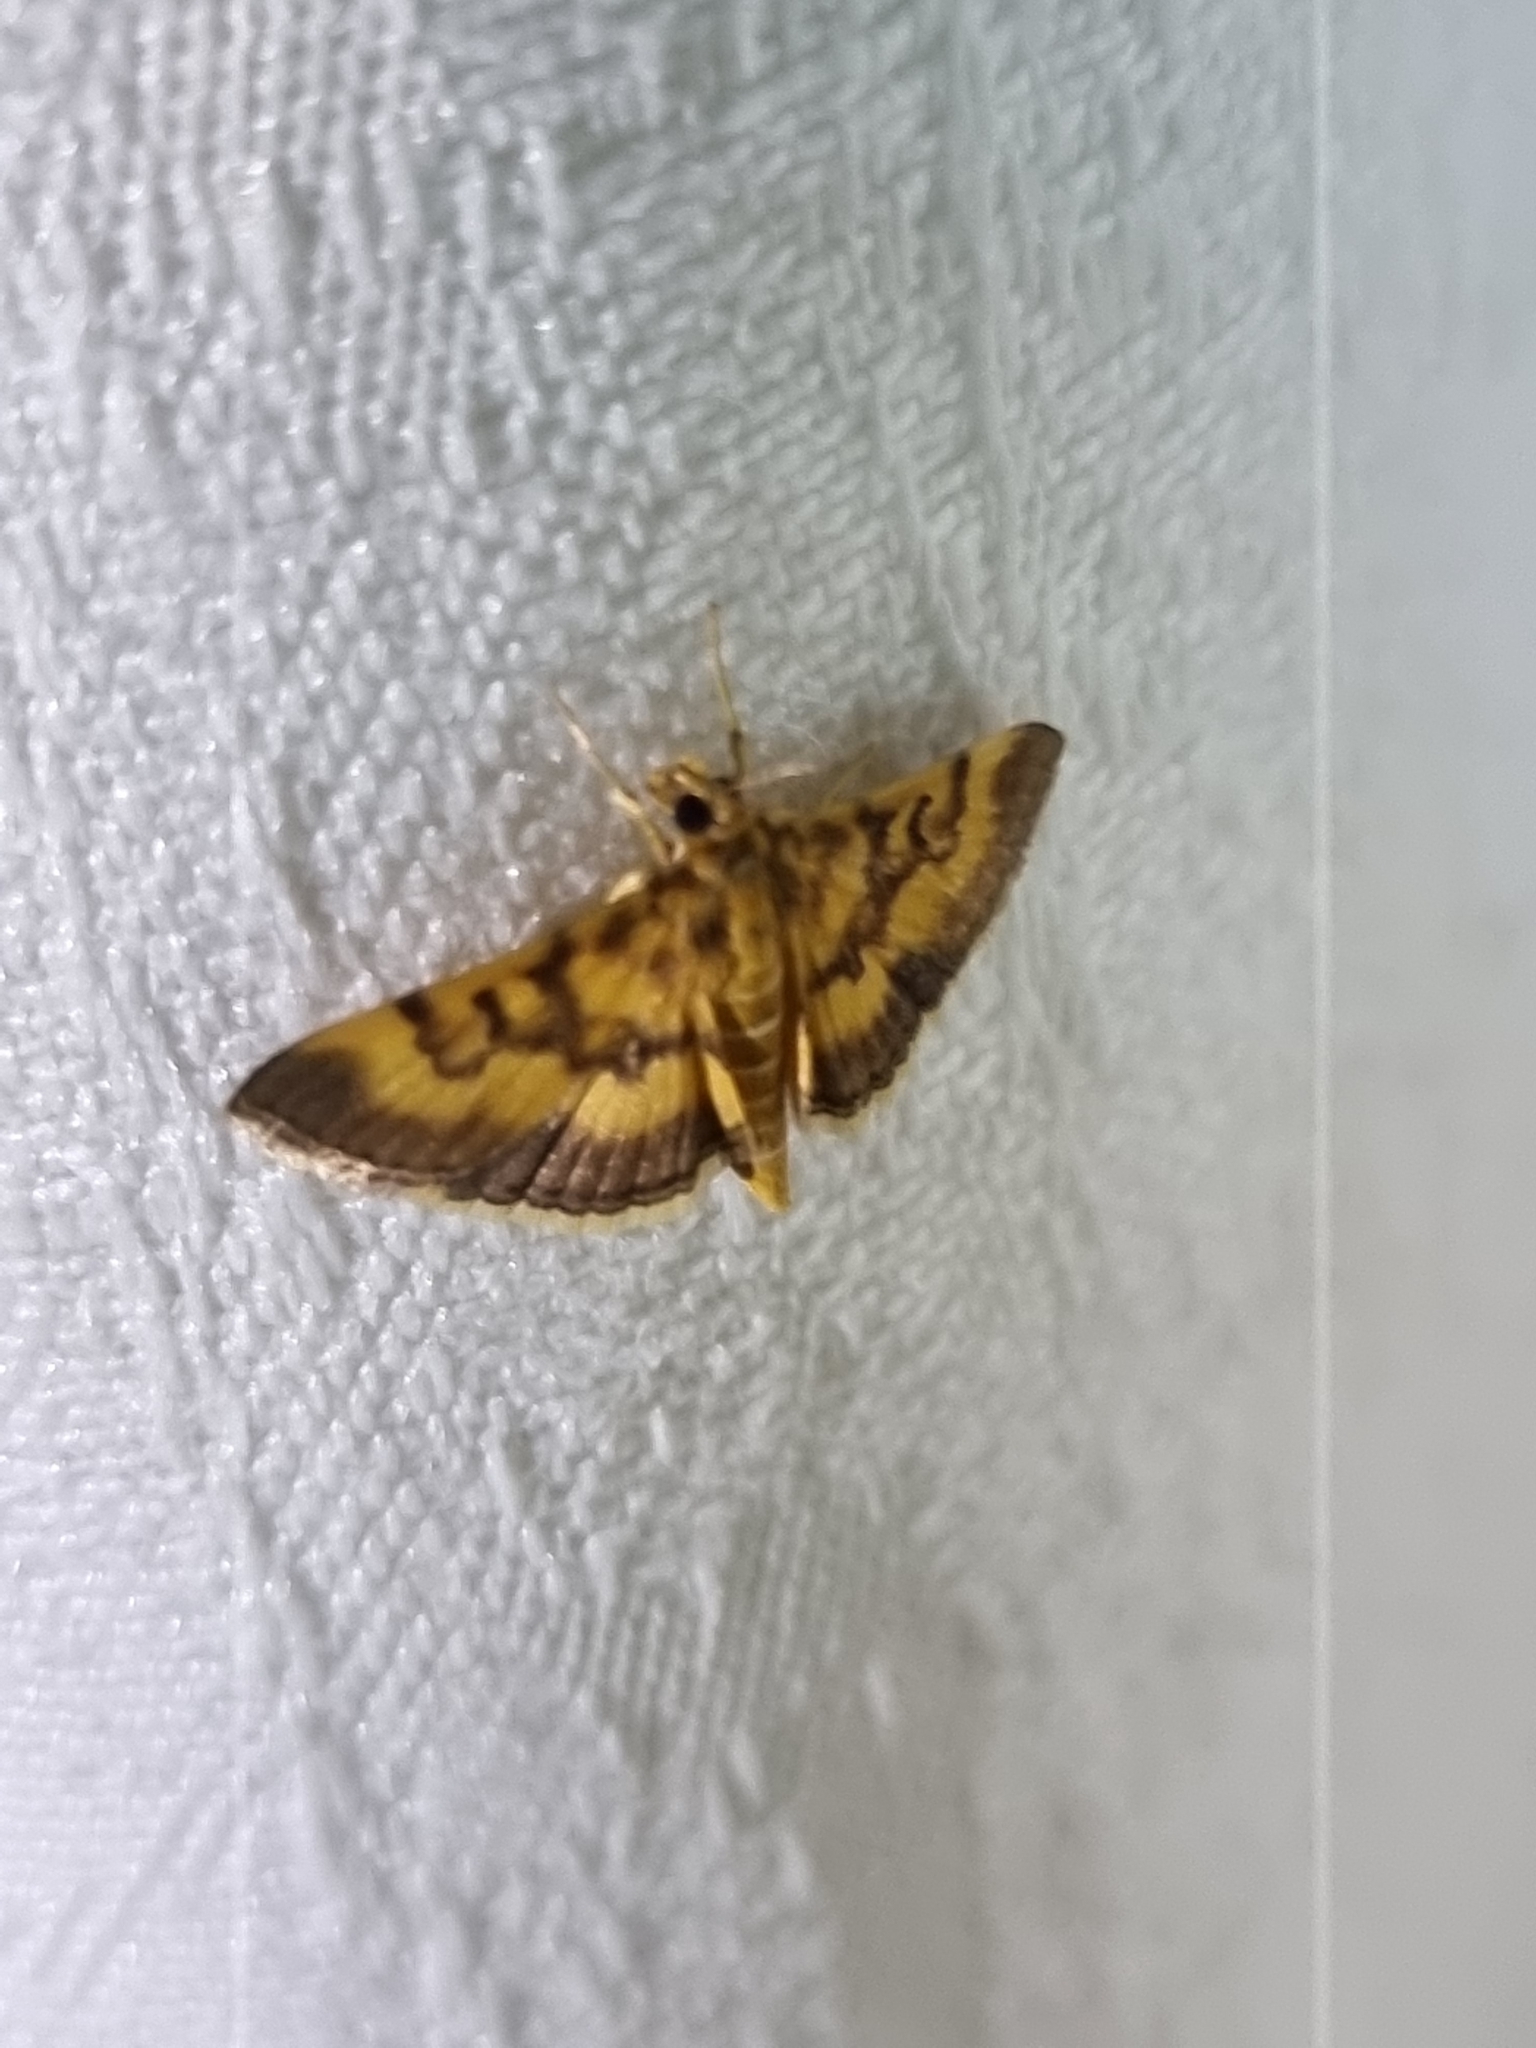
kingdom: Animalia
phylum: Arthropoda
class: Insecta
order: Lepidoptera
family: Crambidae
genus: Omiodes
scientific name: Omiodes diemenalis
